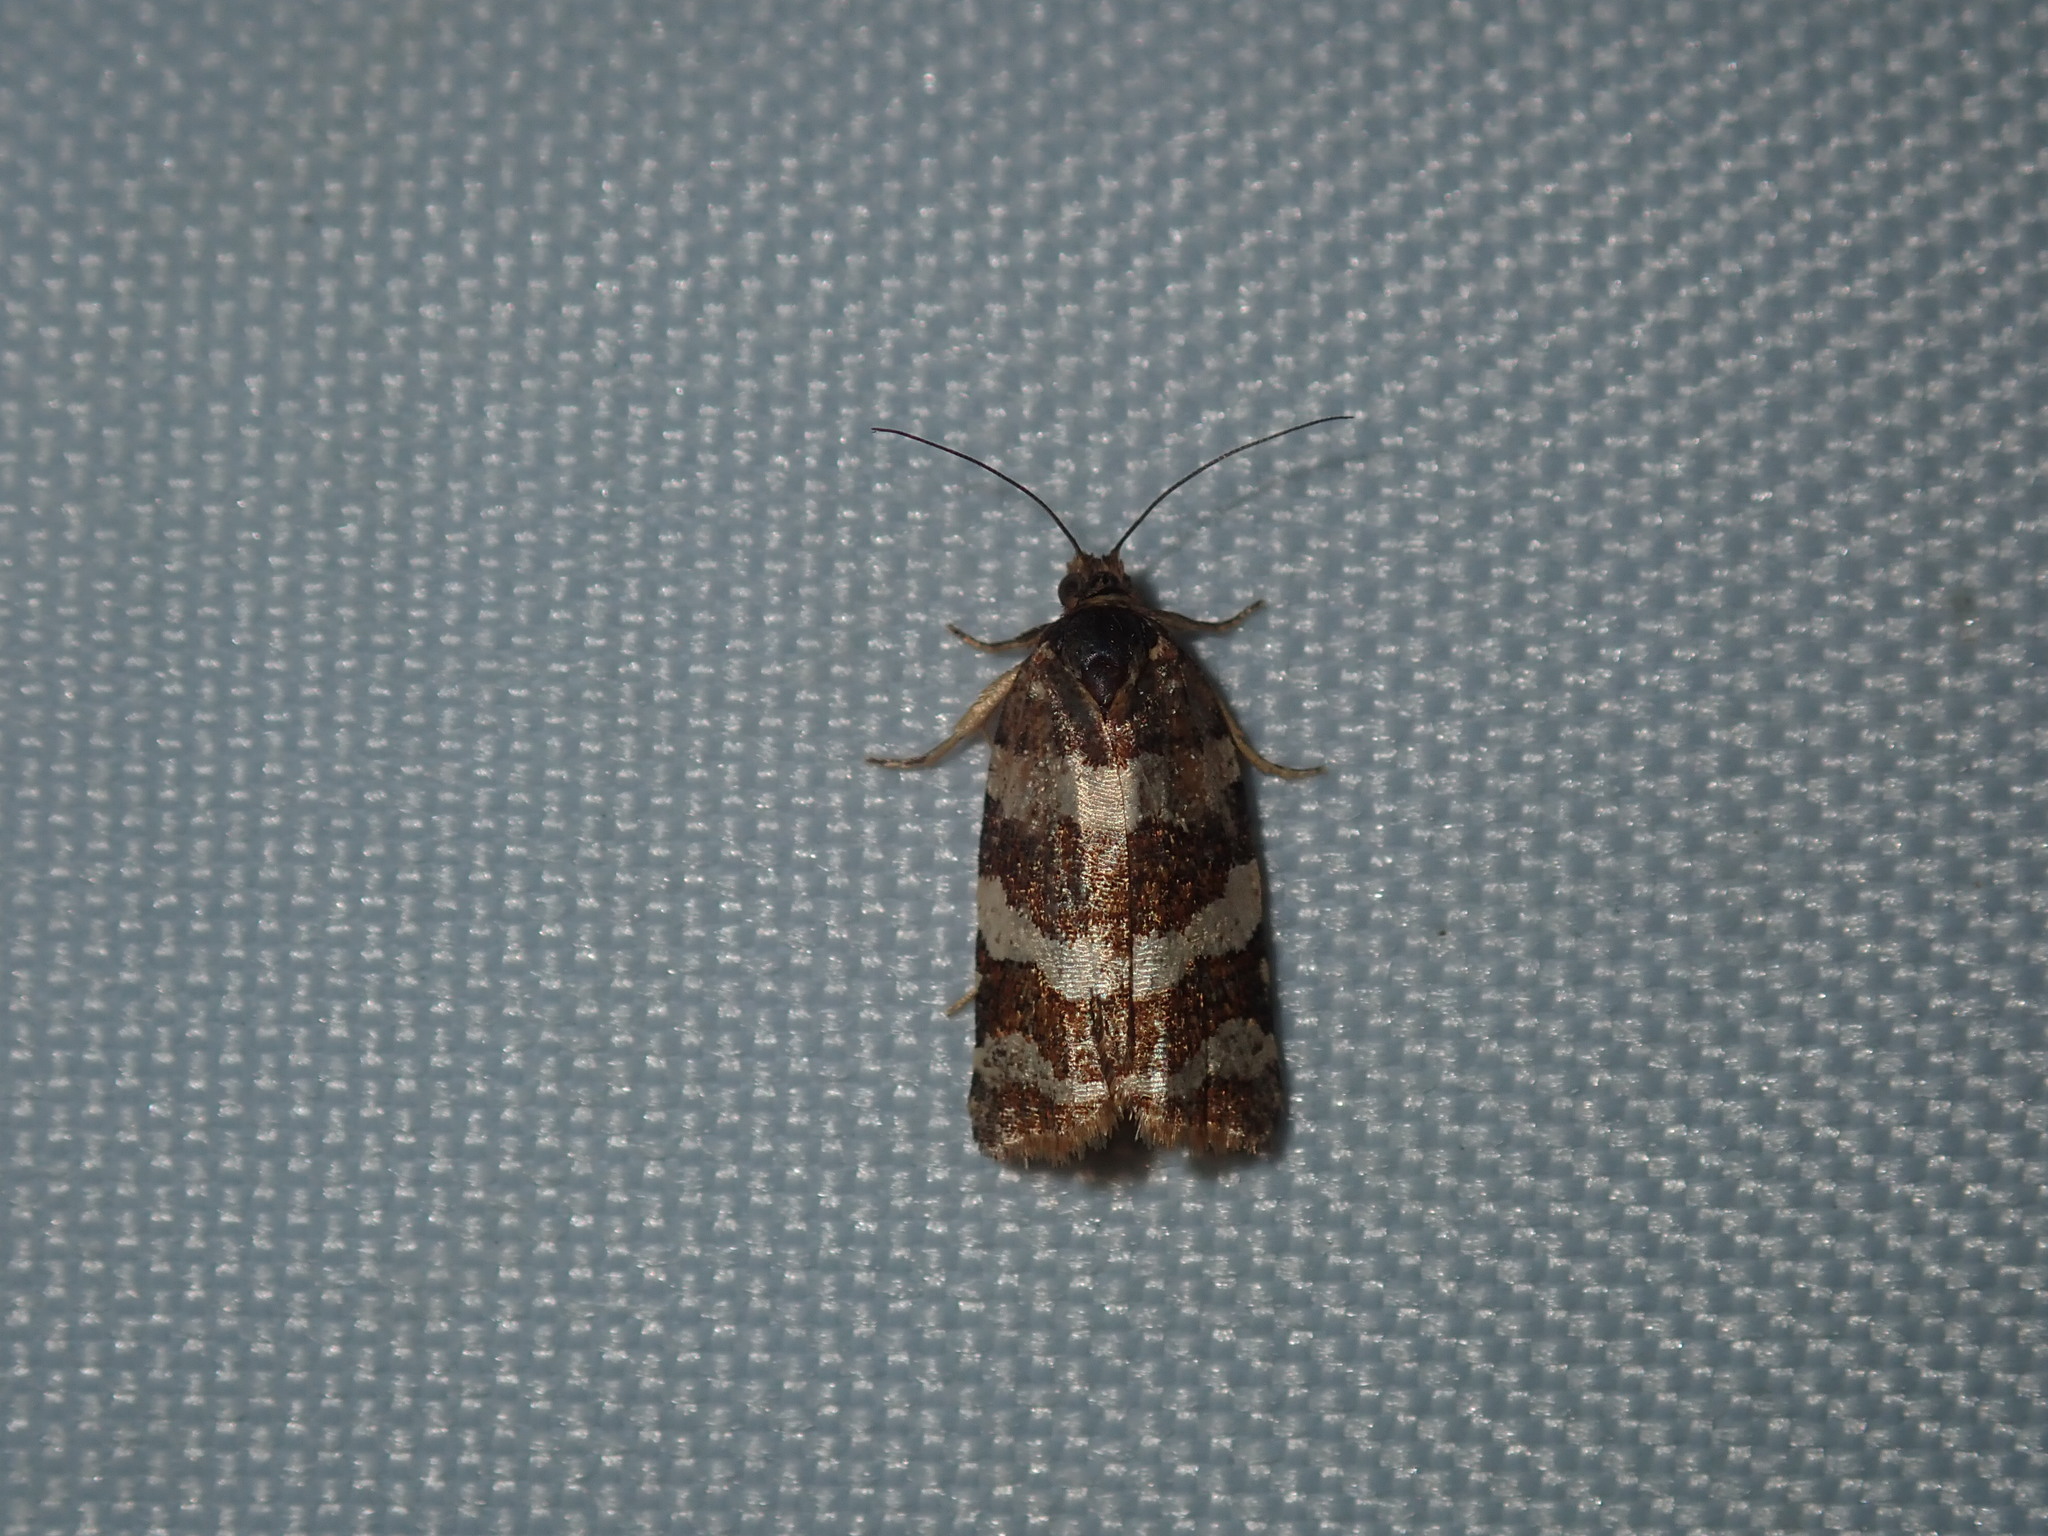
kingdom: Animalia
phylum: Arthropoda
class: Insecta
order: Lepidoptera
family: Tortricidae
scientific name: Tortricidae
